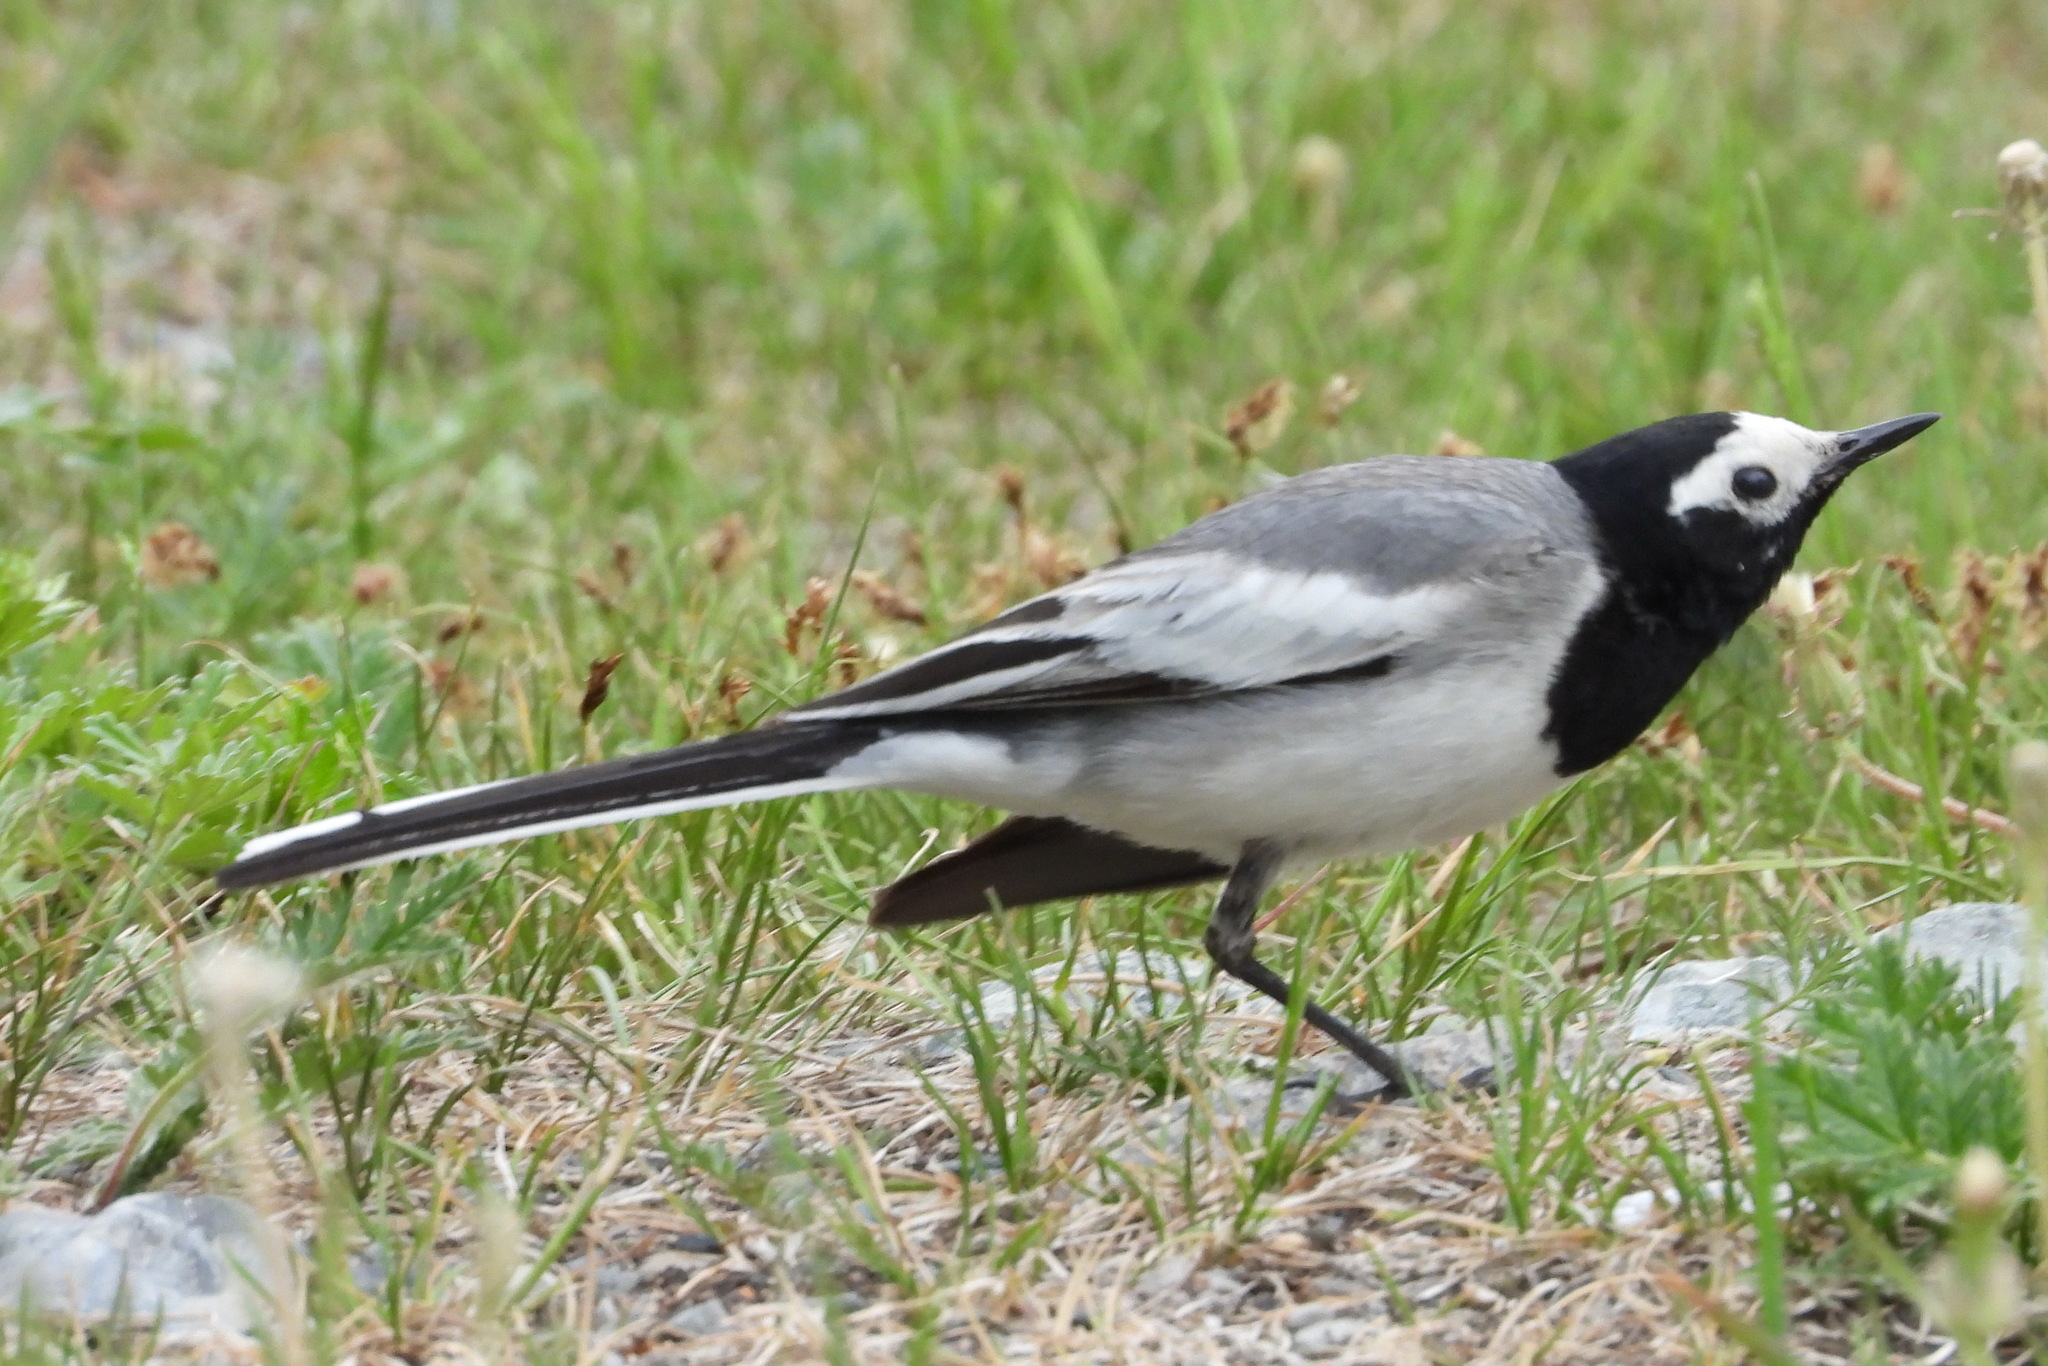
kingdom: Animalia
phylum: Chordata
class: Aves
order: Passeriformes
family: Motacillidae
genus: Motacilla
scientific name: Motacilla alba
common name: White wagtail
